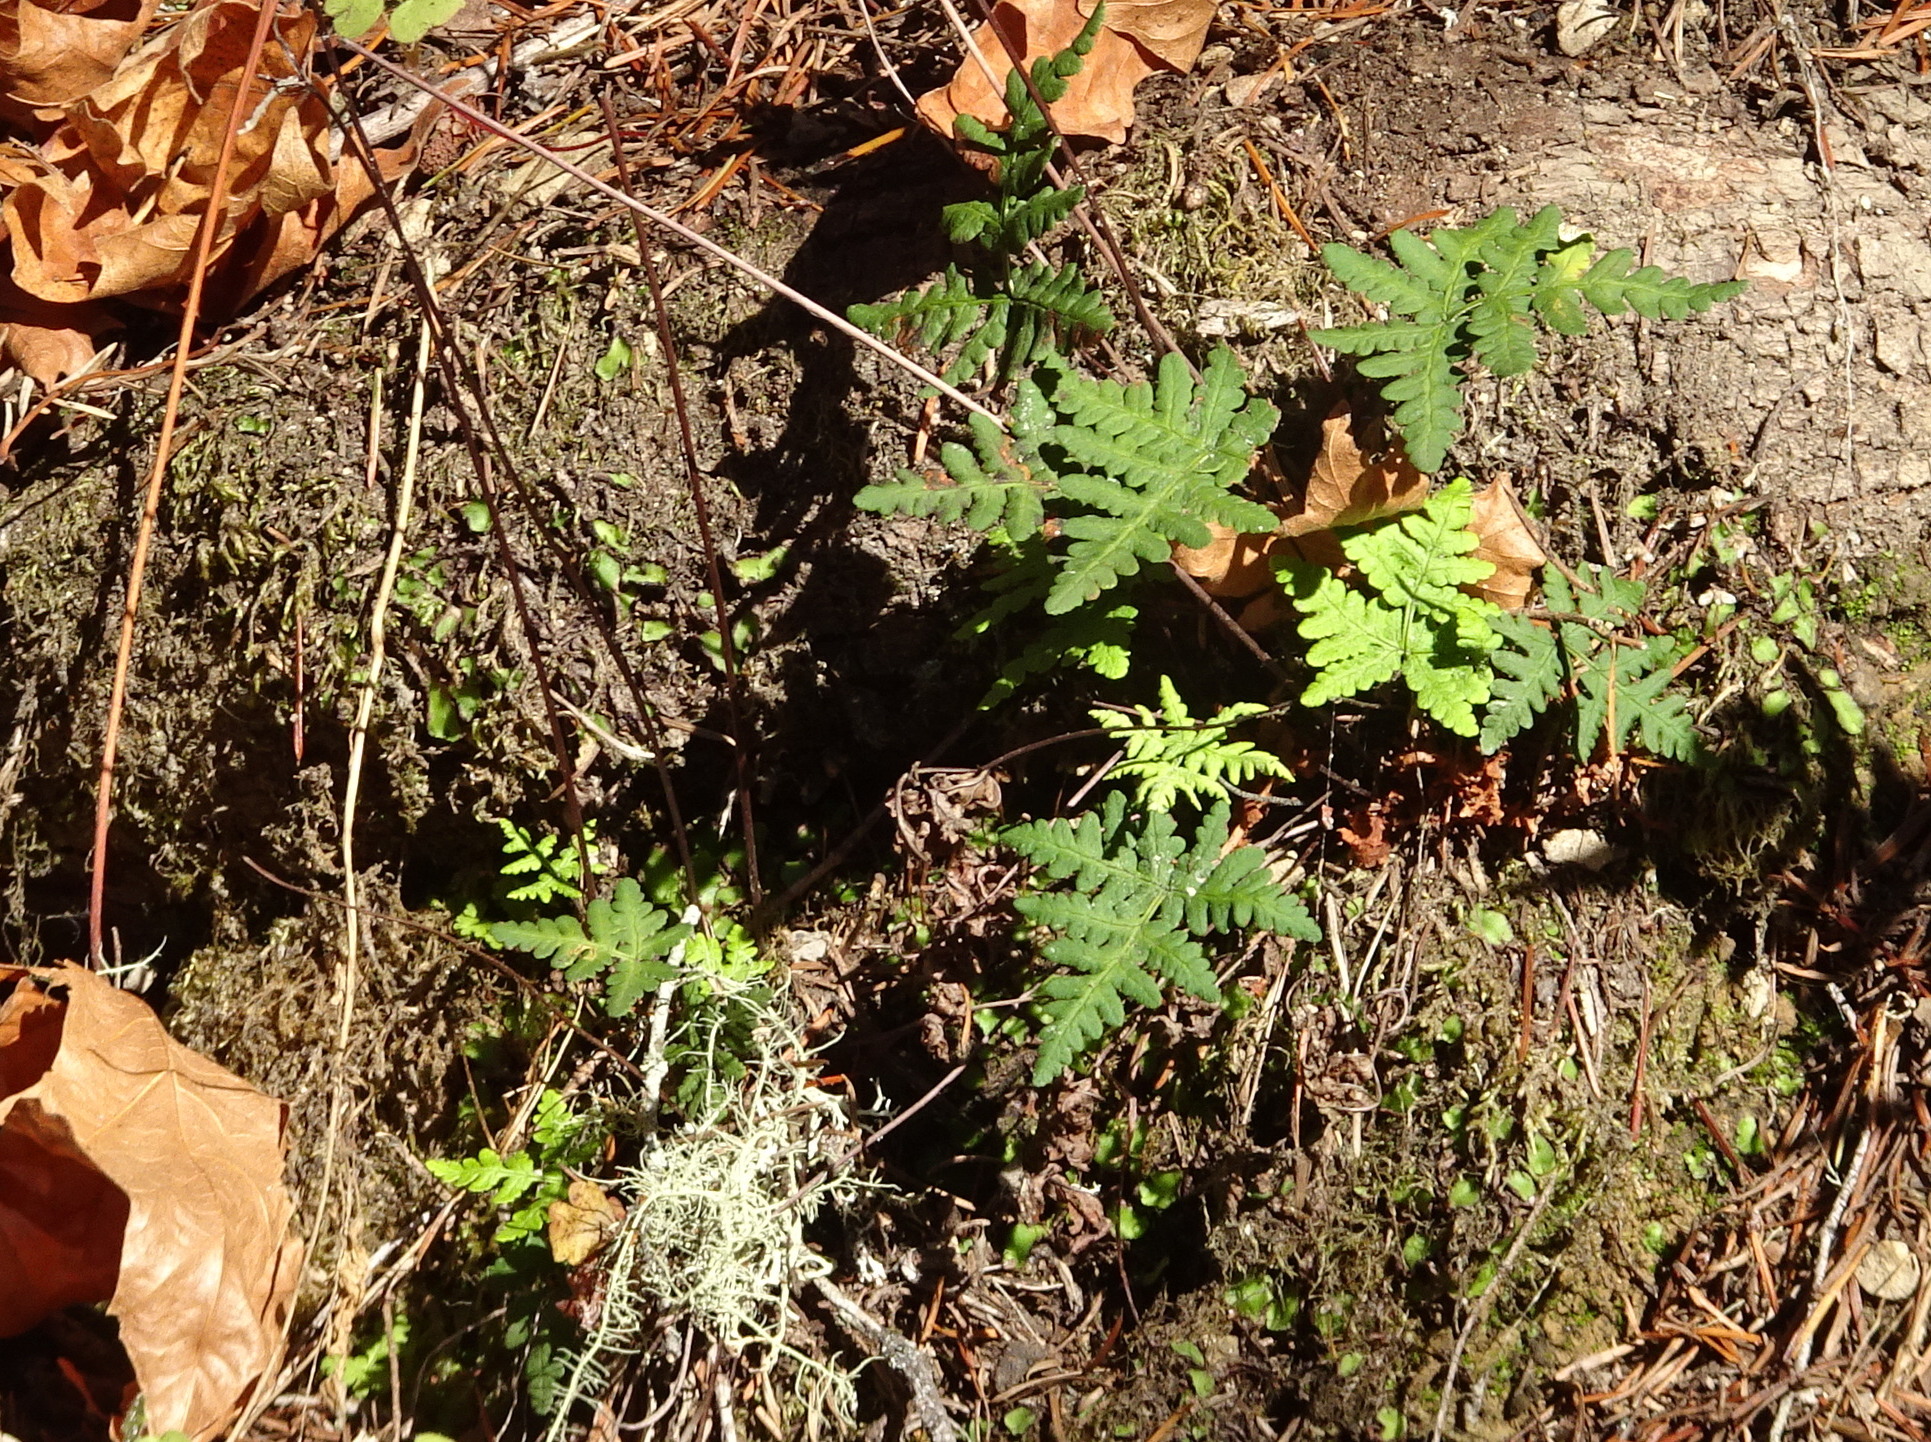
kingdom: Plantae
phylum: Tracheophyta
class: Polypodiopsida
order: Polypodiales
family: Pteridaceae
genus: Pentagramma
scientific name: Pentagramma triangularis
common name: Gold fern
